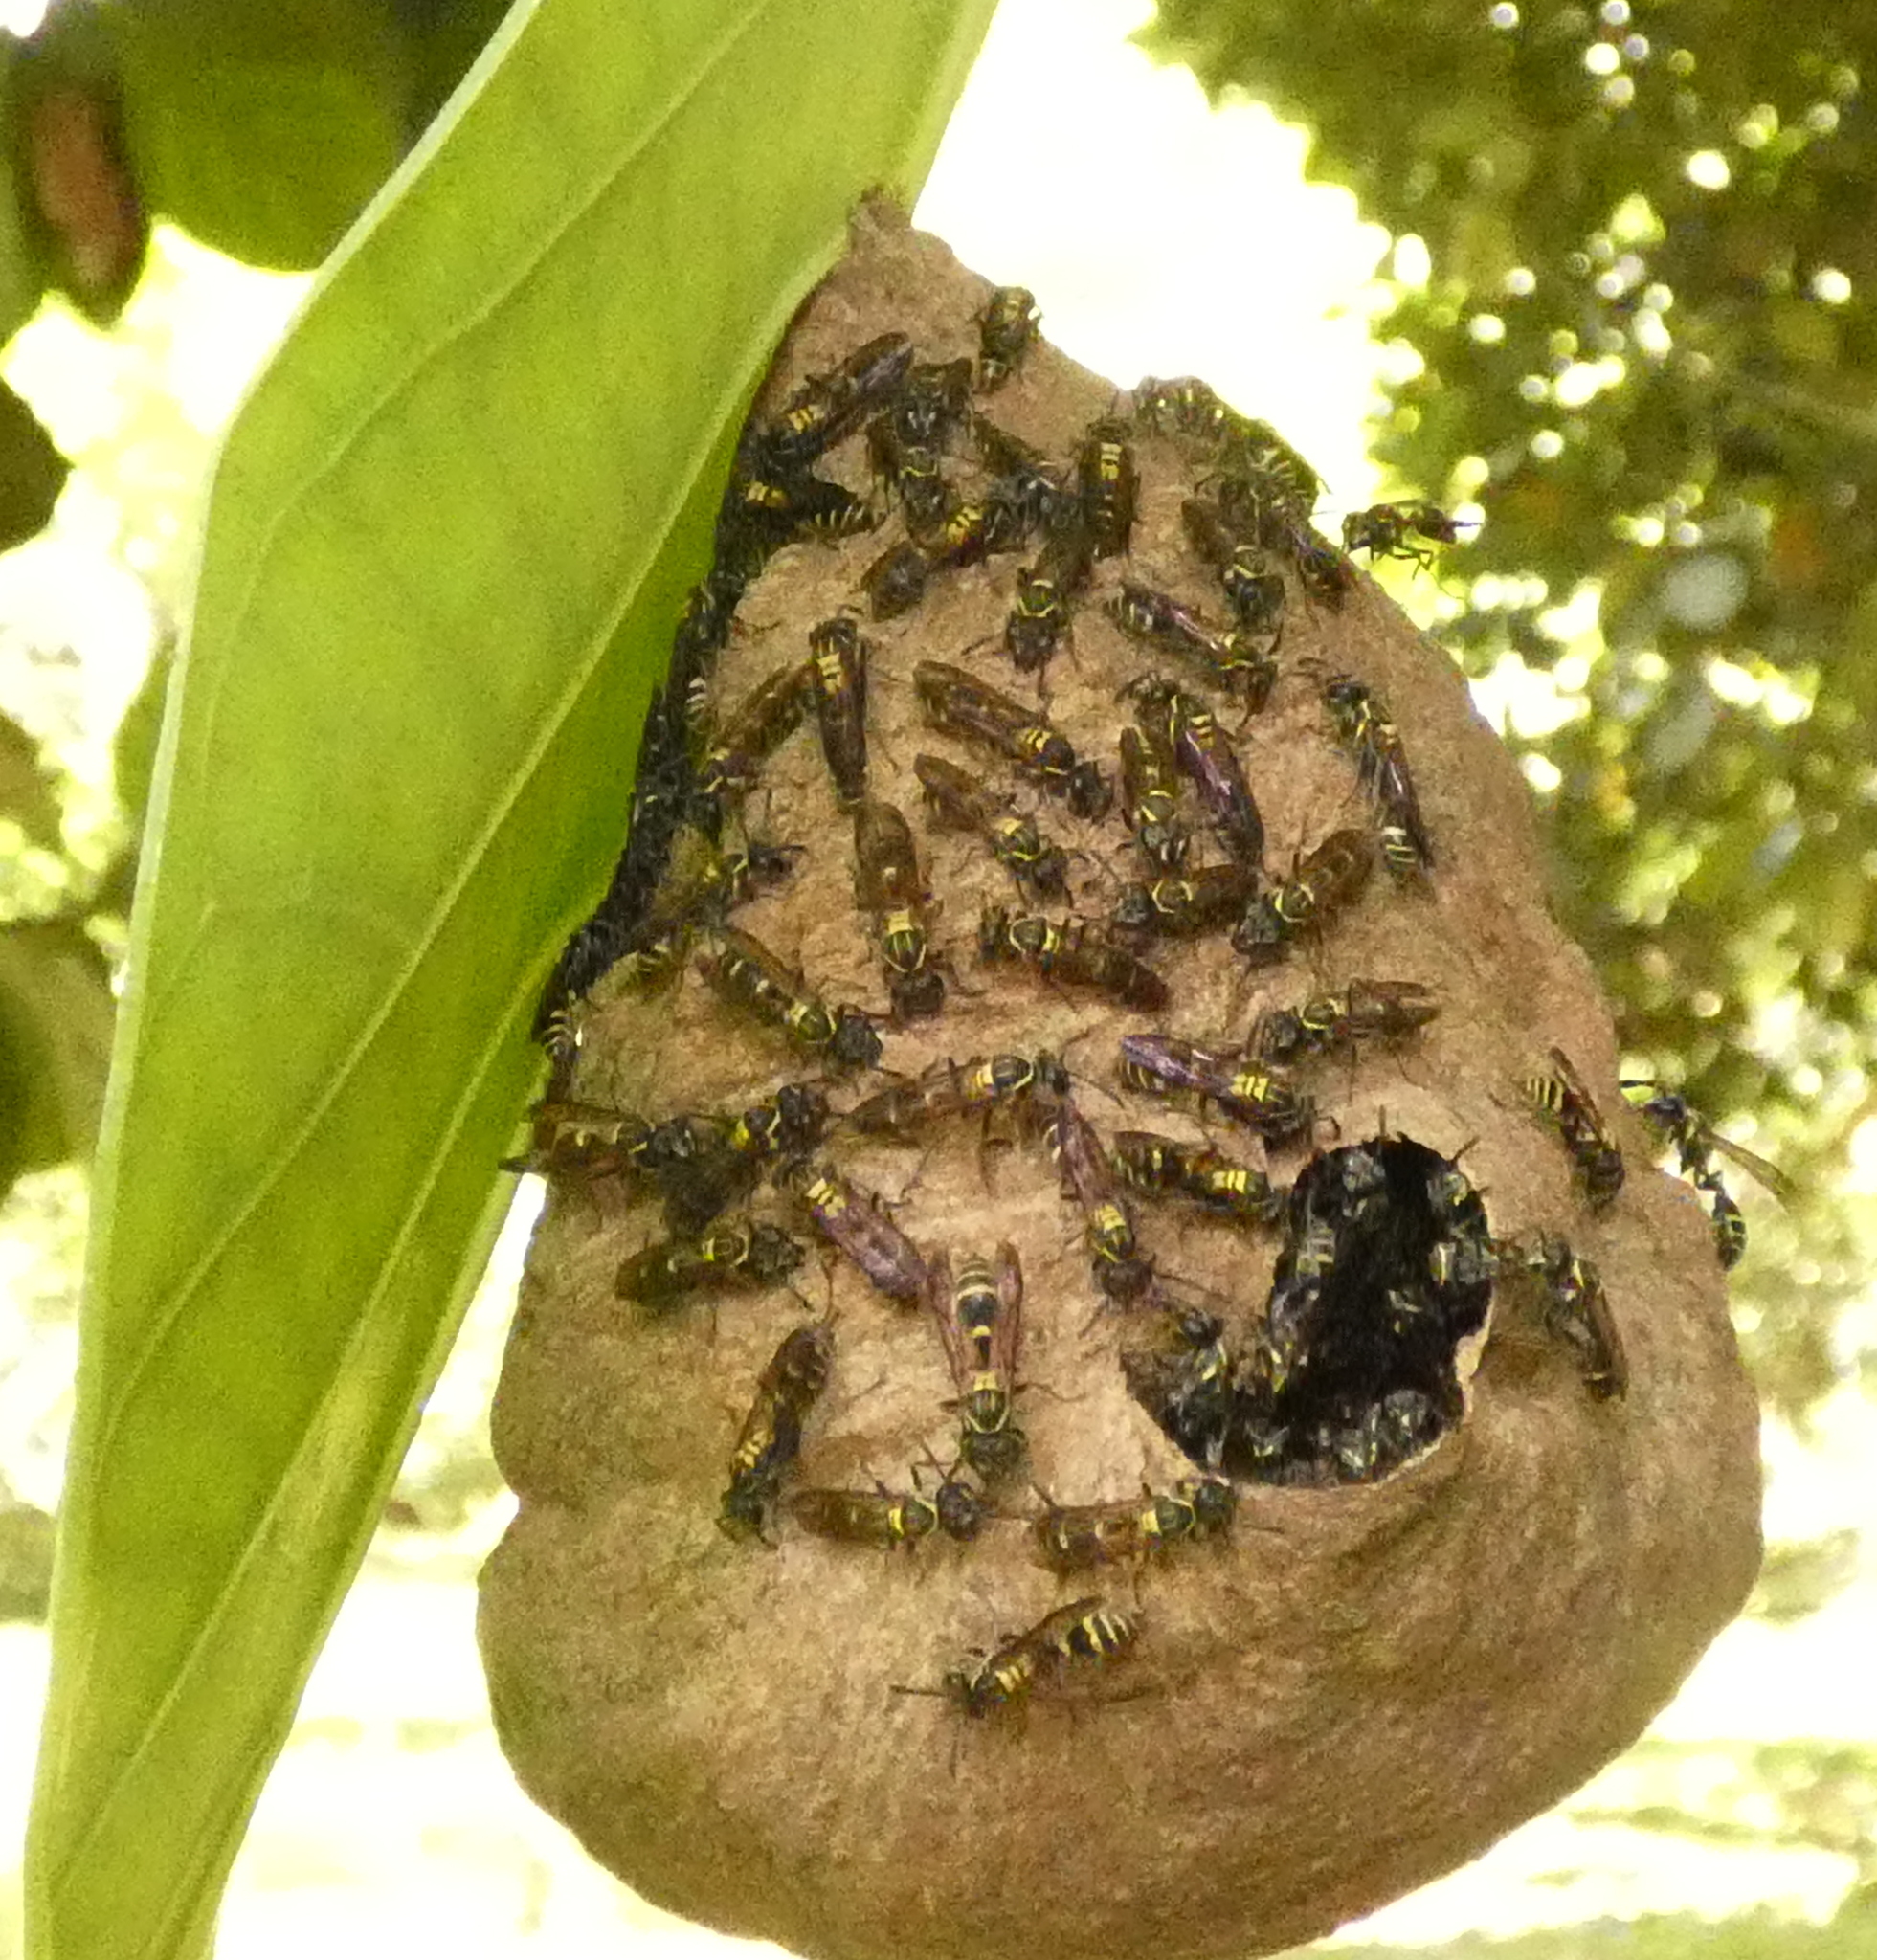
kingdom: Animalia
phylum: Arthropoda
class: Insecta
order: Hymenoptera
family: Eumenidae
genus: Polybia
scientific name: Polybia occidentalis
